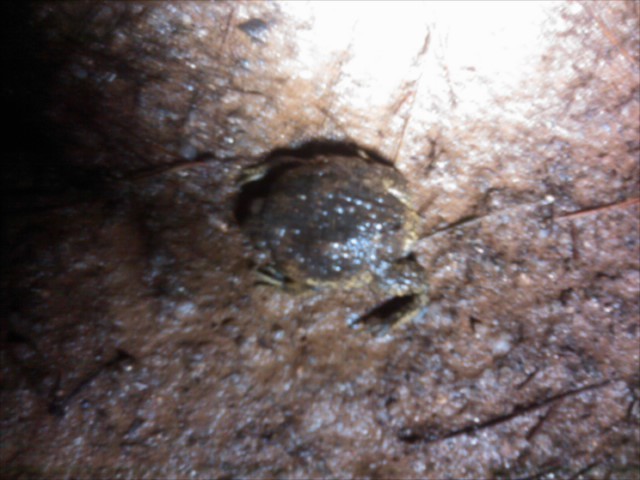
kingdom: Animalia
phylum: Chordata
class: Amphibia
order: Anura
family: Microhylidae
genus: Kaloula
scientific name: Kaloula borealis
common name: Boreal digging frog
